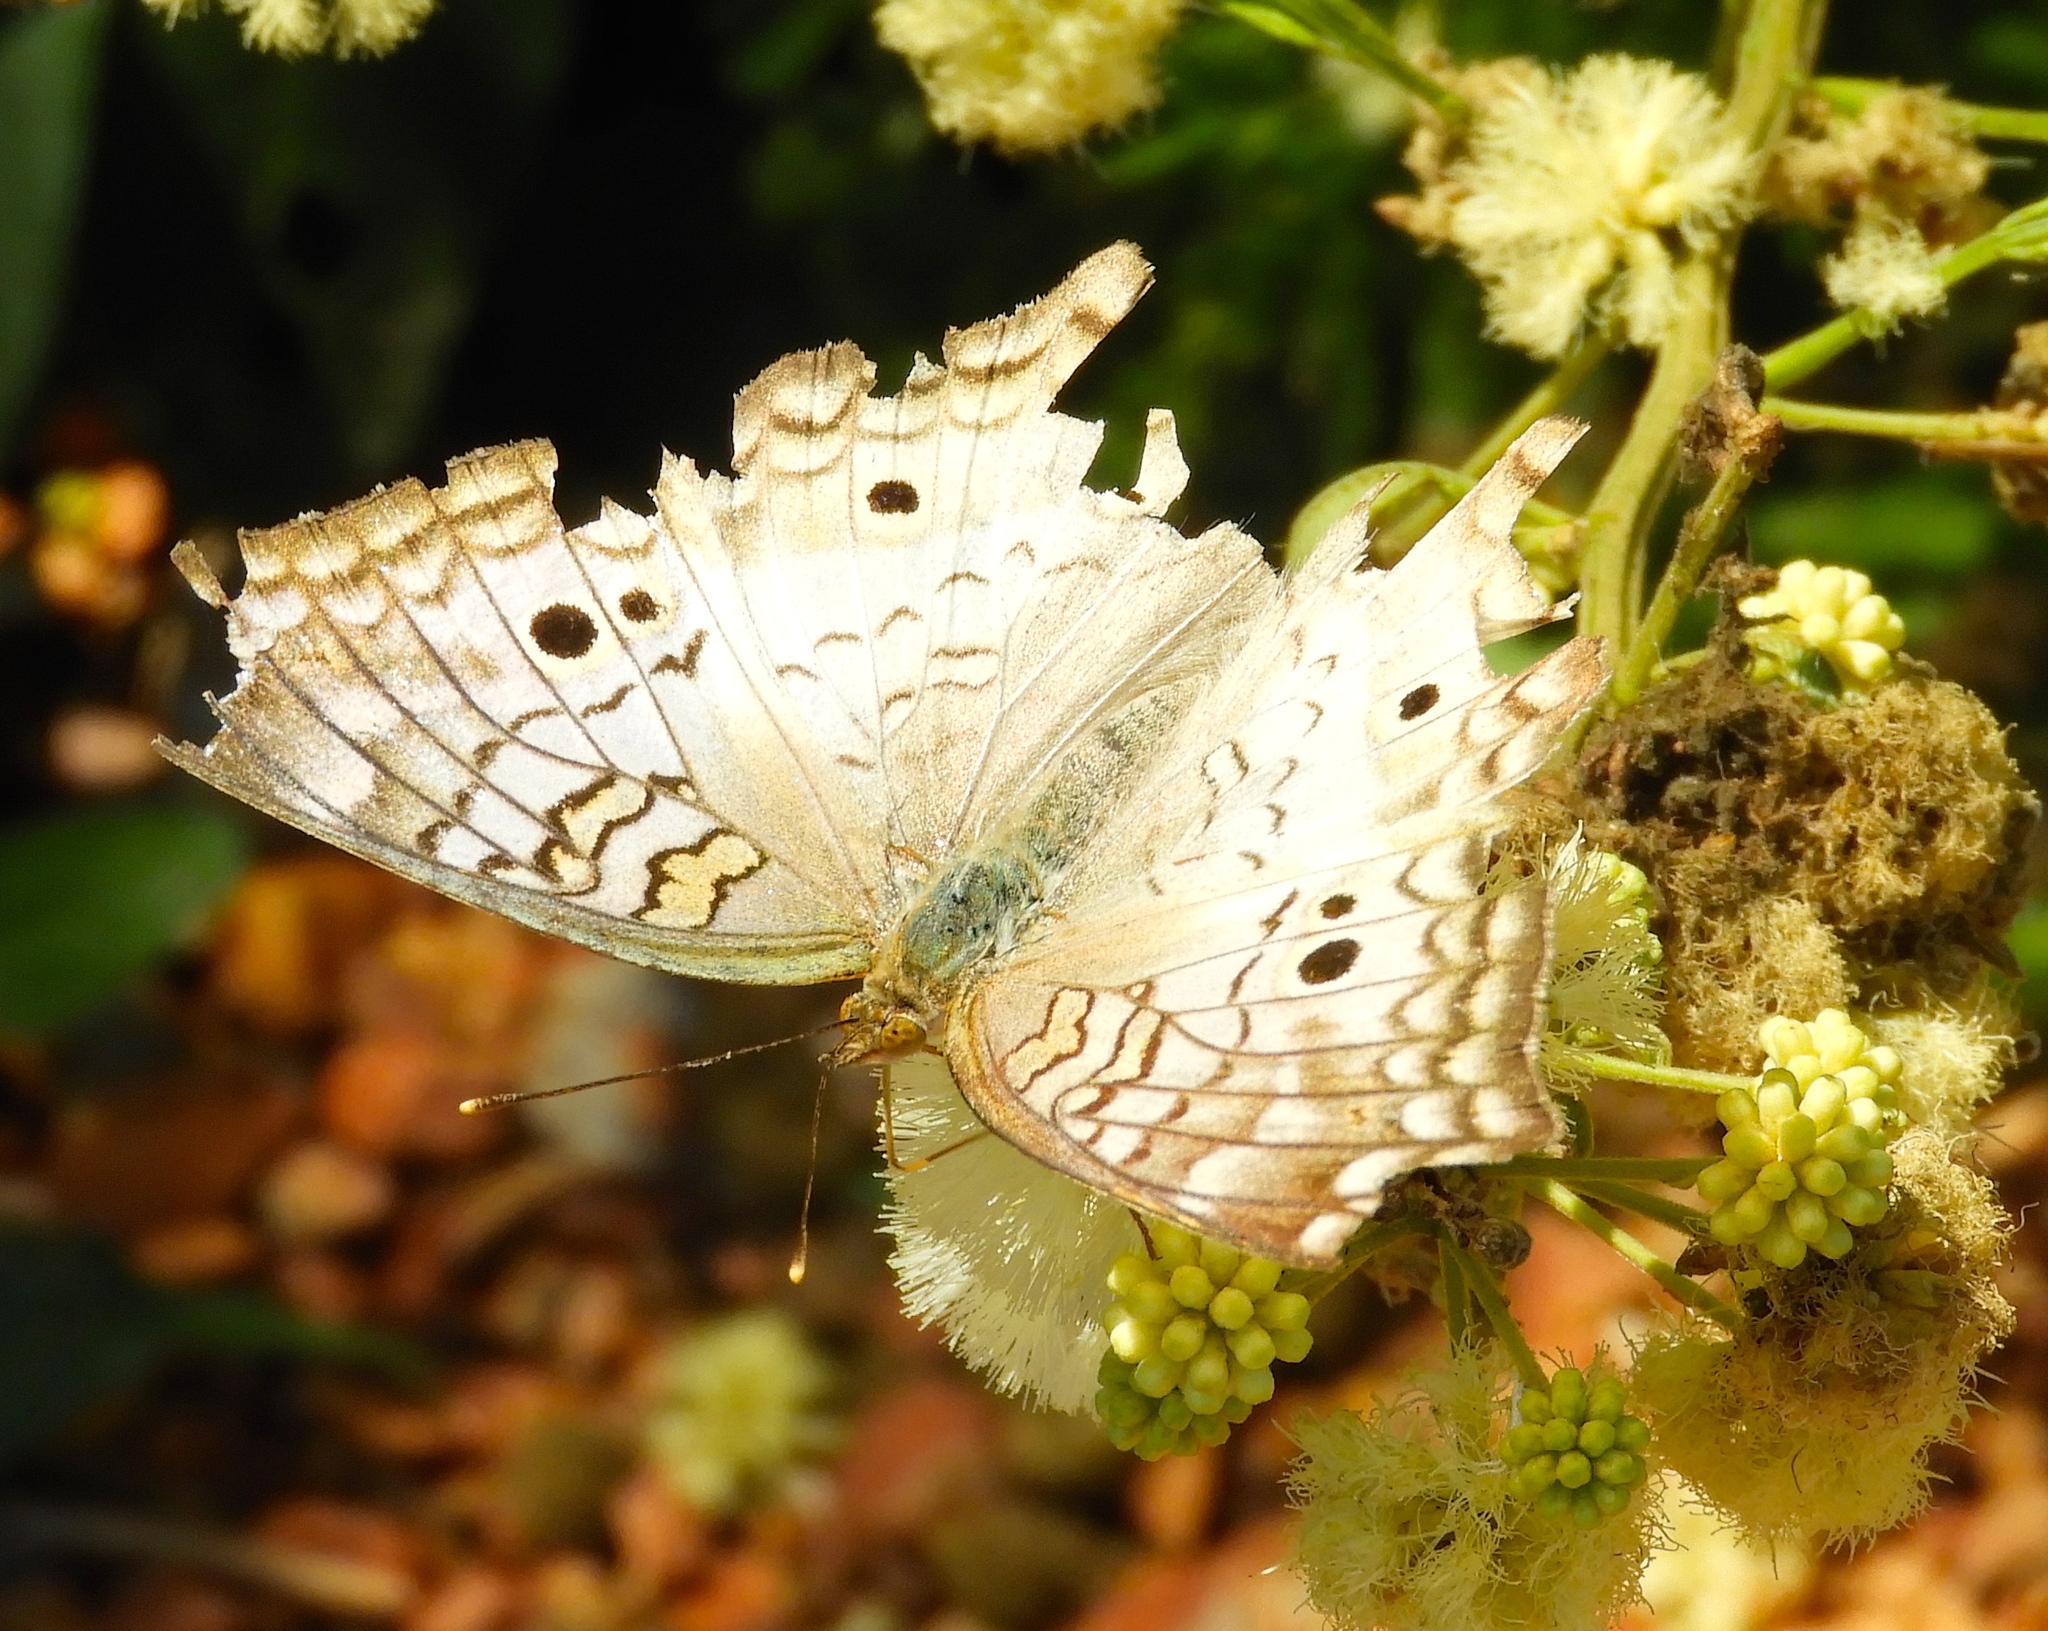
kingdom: Animalia
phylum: Arthropoda
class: Insecta
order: Lepidoptera
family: Nymphalidae
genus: Anartia
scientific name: Anartia jatrophae
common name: White peacock
